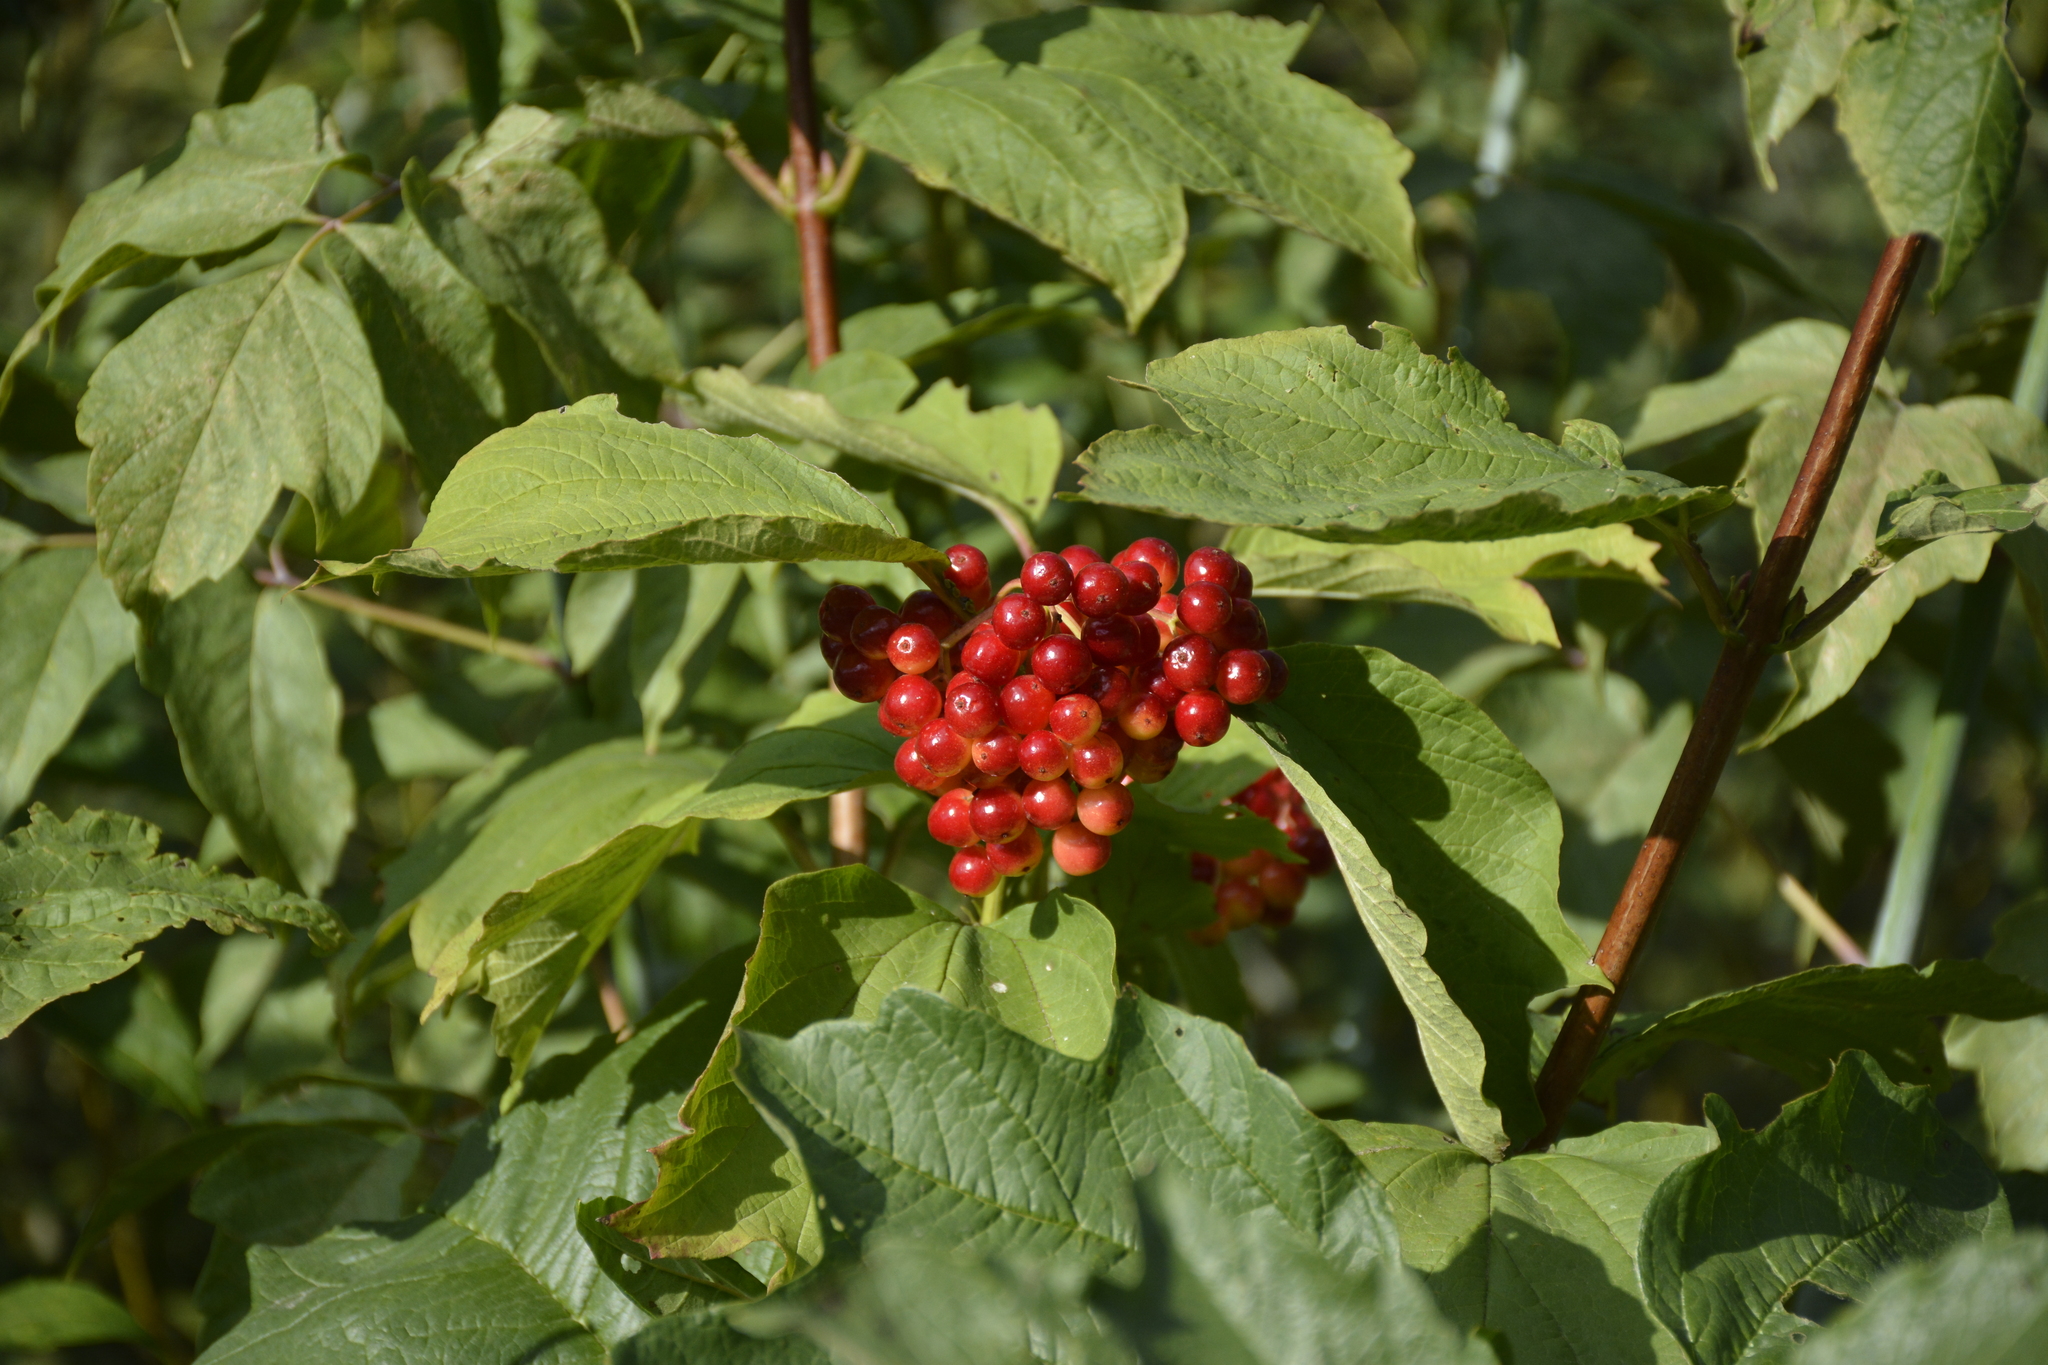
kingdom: Plantae
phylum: Tracheophyta
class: Magnoliopsida
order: Dipsacales
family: Viburnaceae
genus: Viburnum
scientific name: Viburnum opulus
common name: Guelder-rose
